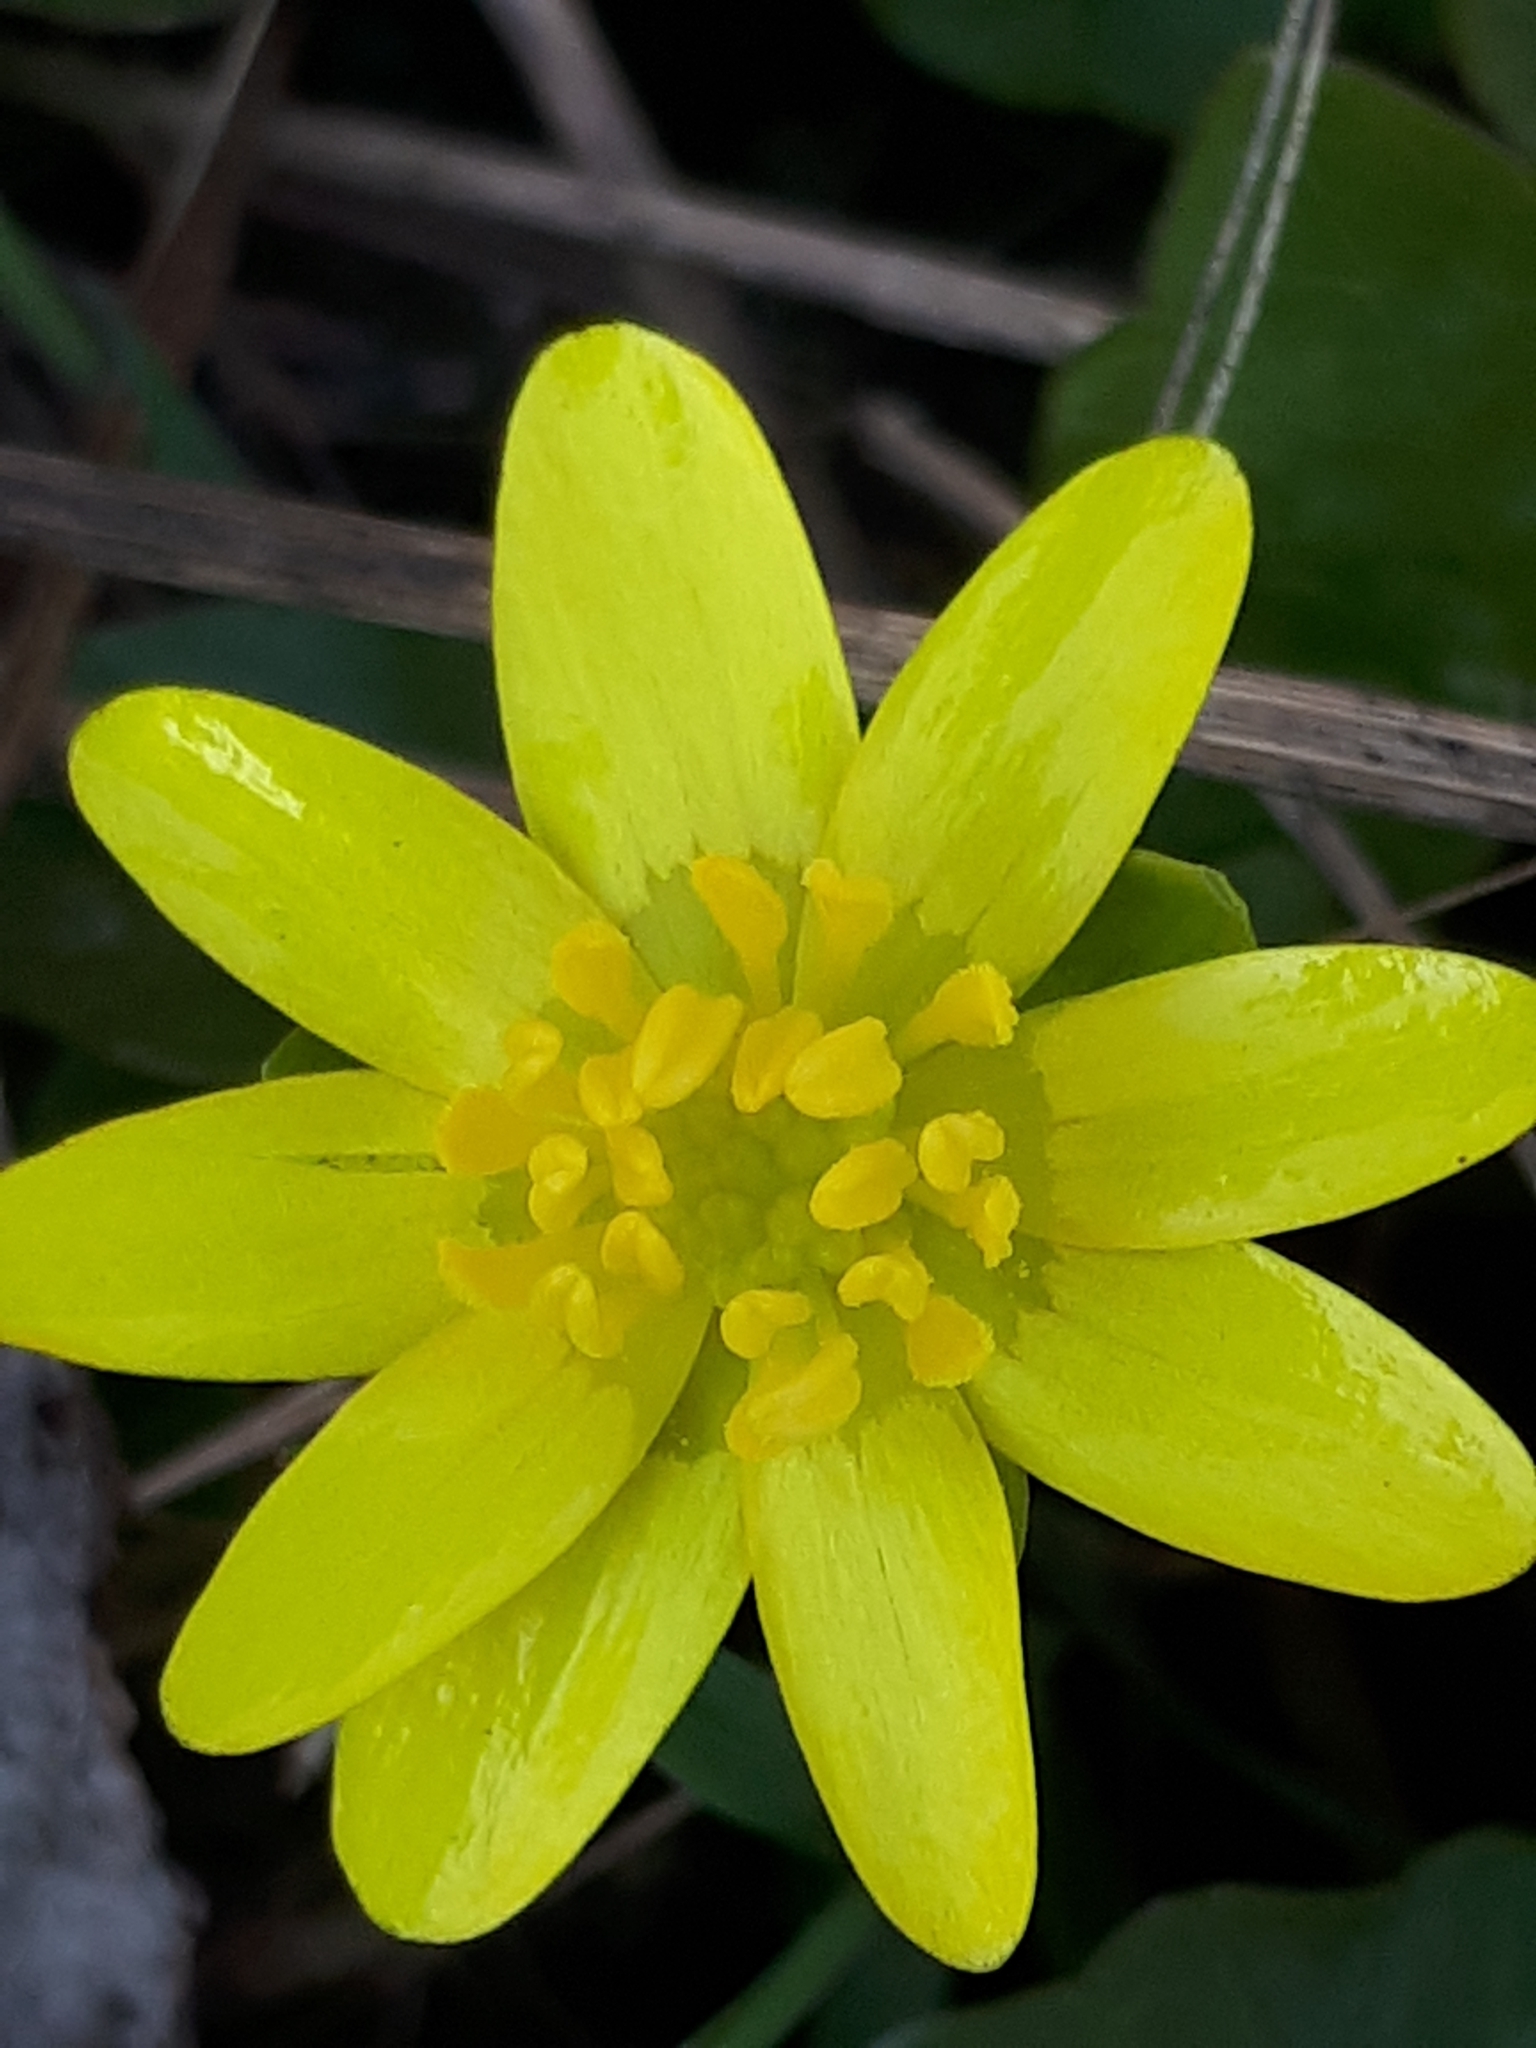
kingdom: Plantae
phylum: Tracheophyta
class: Magnoliopsida
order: Ranunculales
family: Ranunculaceae
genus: Ficaria
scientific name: Ficaria verna
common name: Lesser celandine
